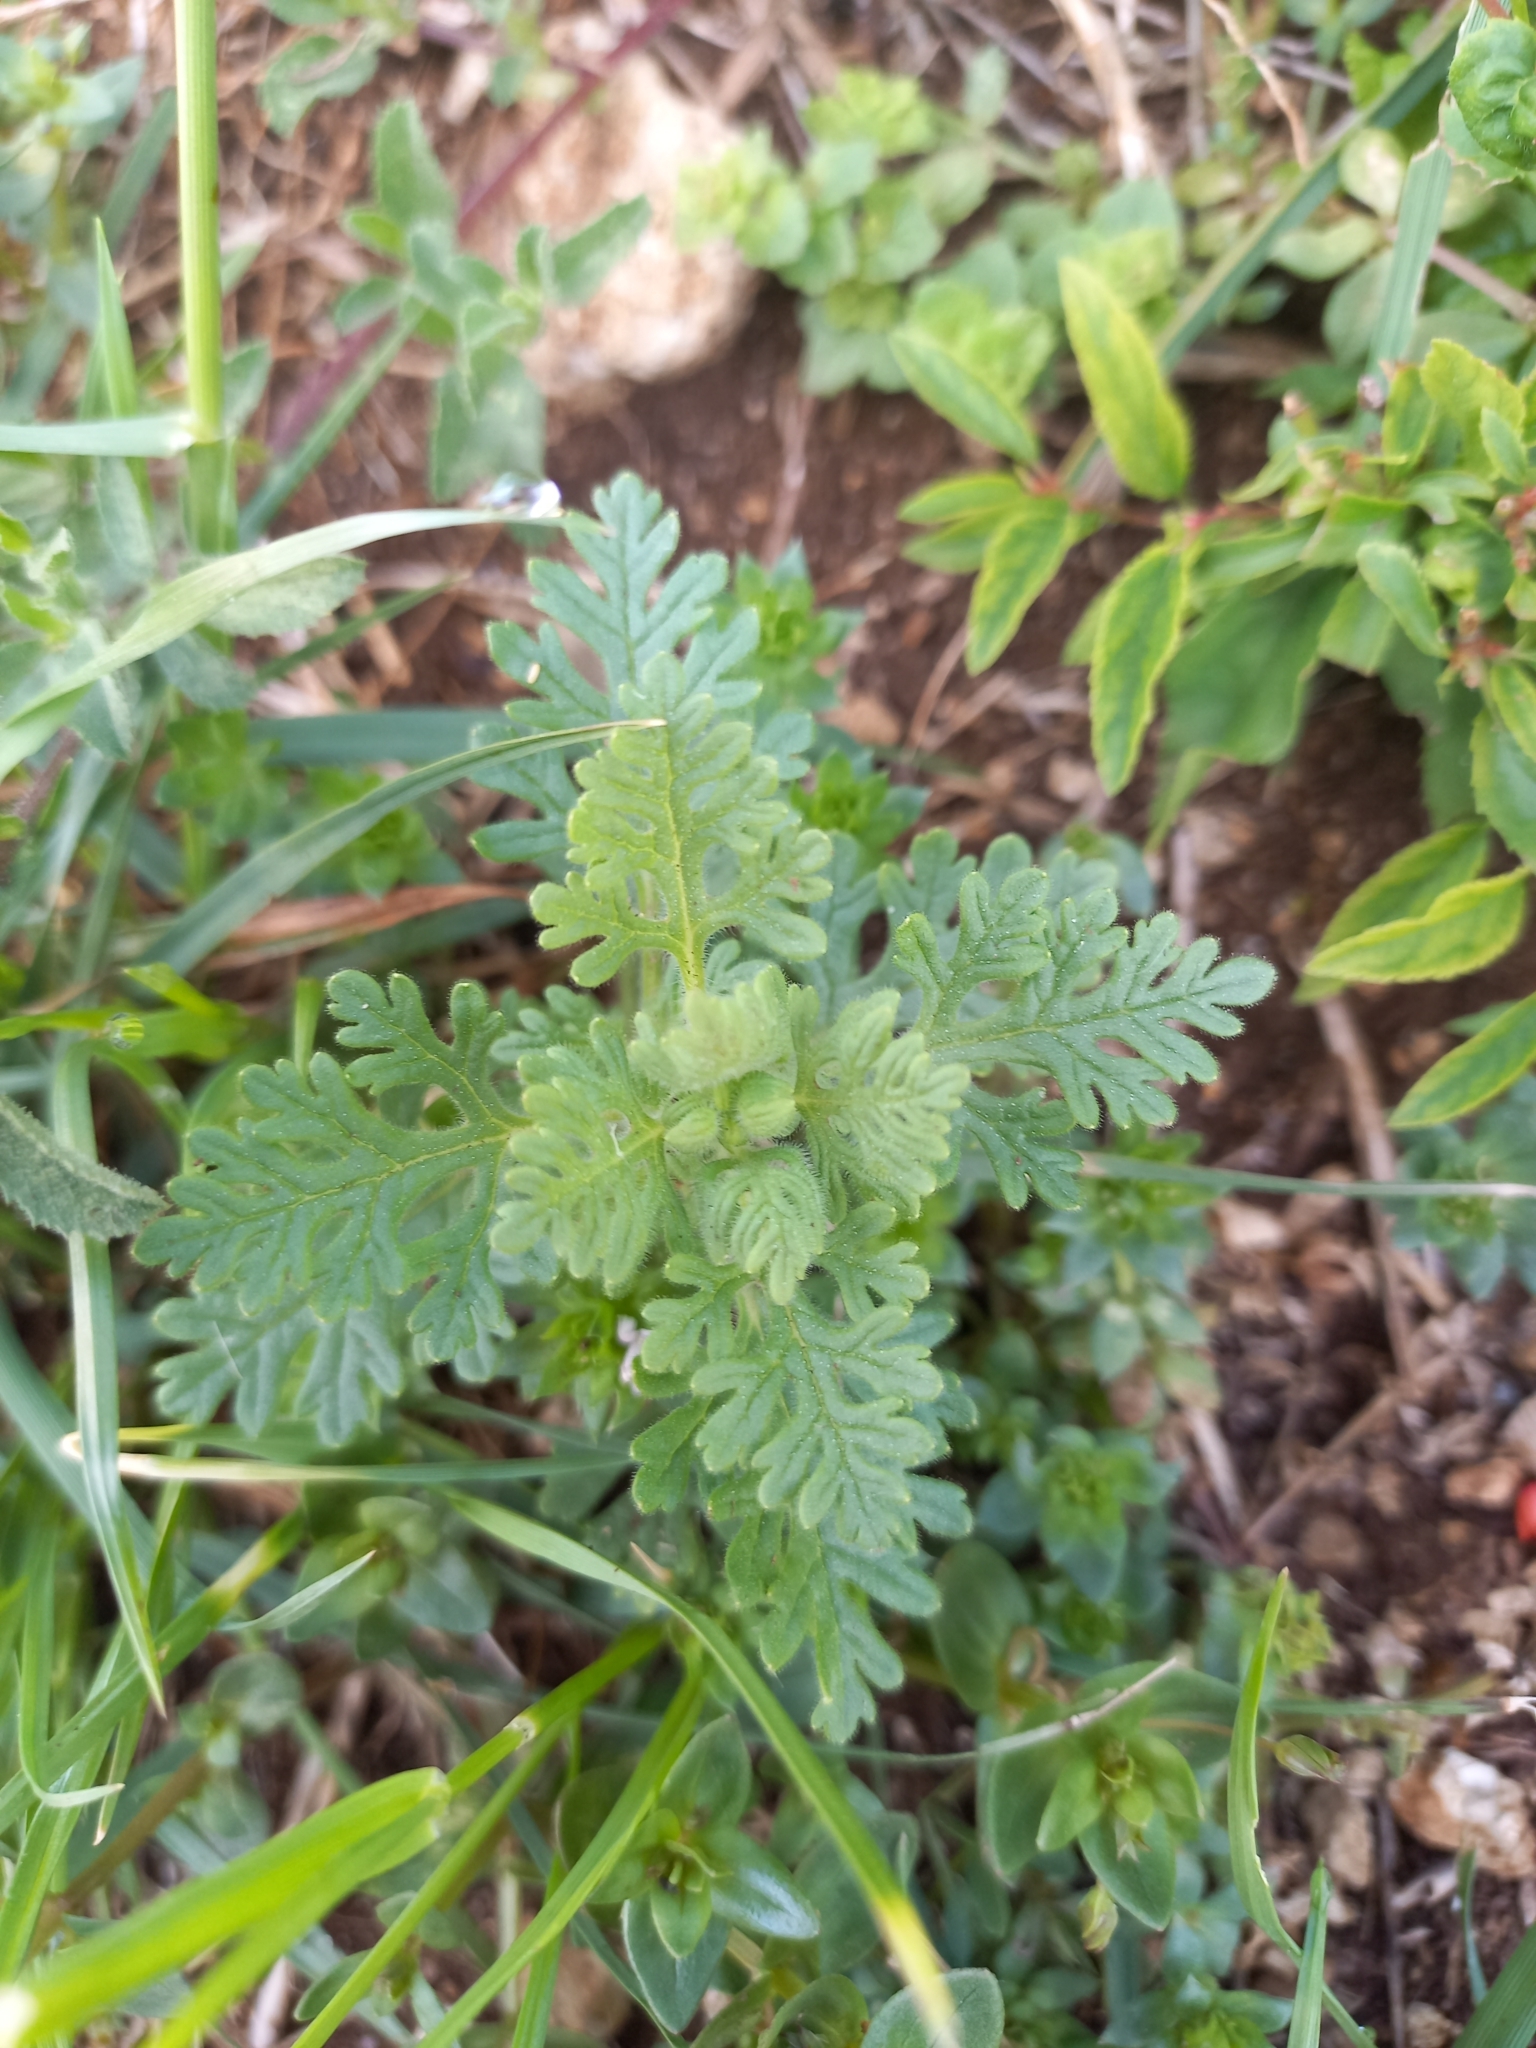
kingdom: Plantae
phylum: Tracheophyta
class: Magnoliopsida
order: Lamiales
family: Lamiaceae
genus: Teucrium
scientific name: Teucrium botrys
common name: Cut-leaved germander
